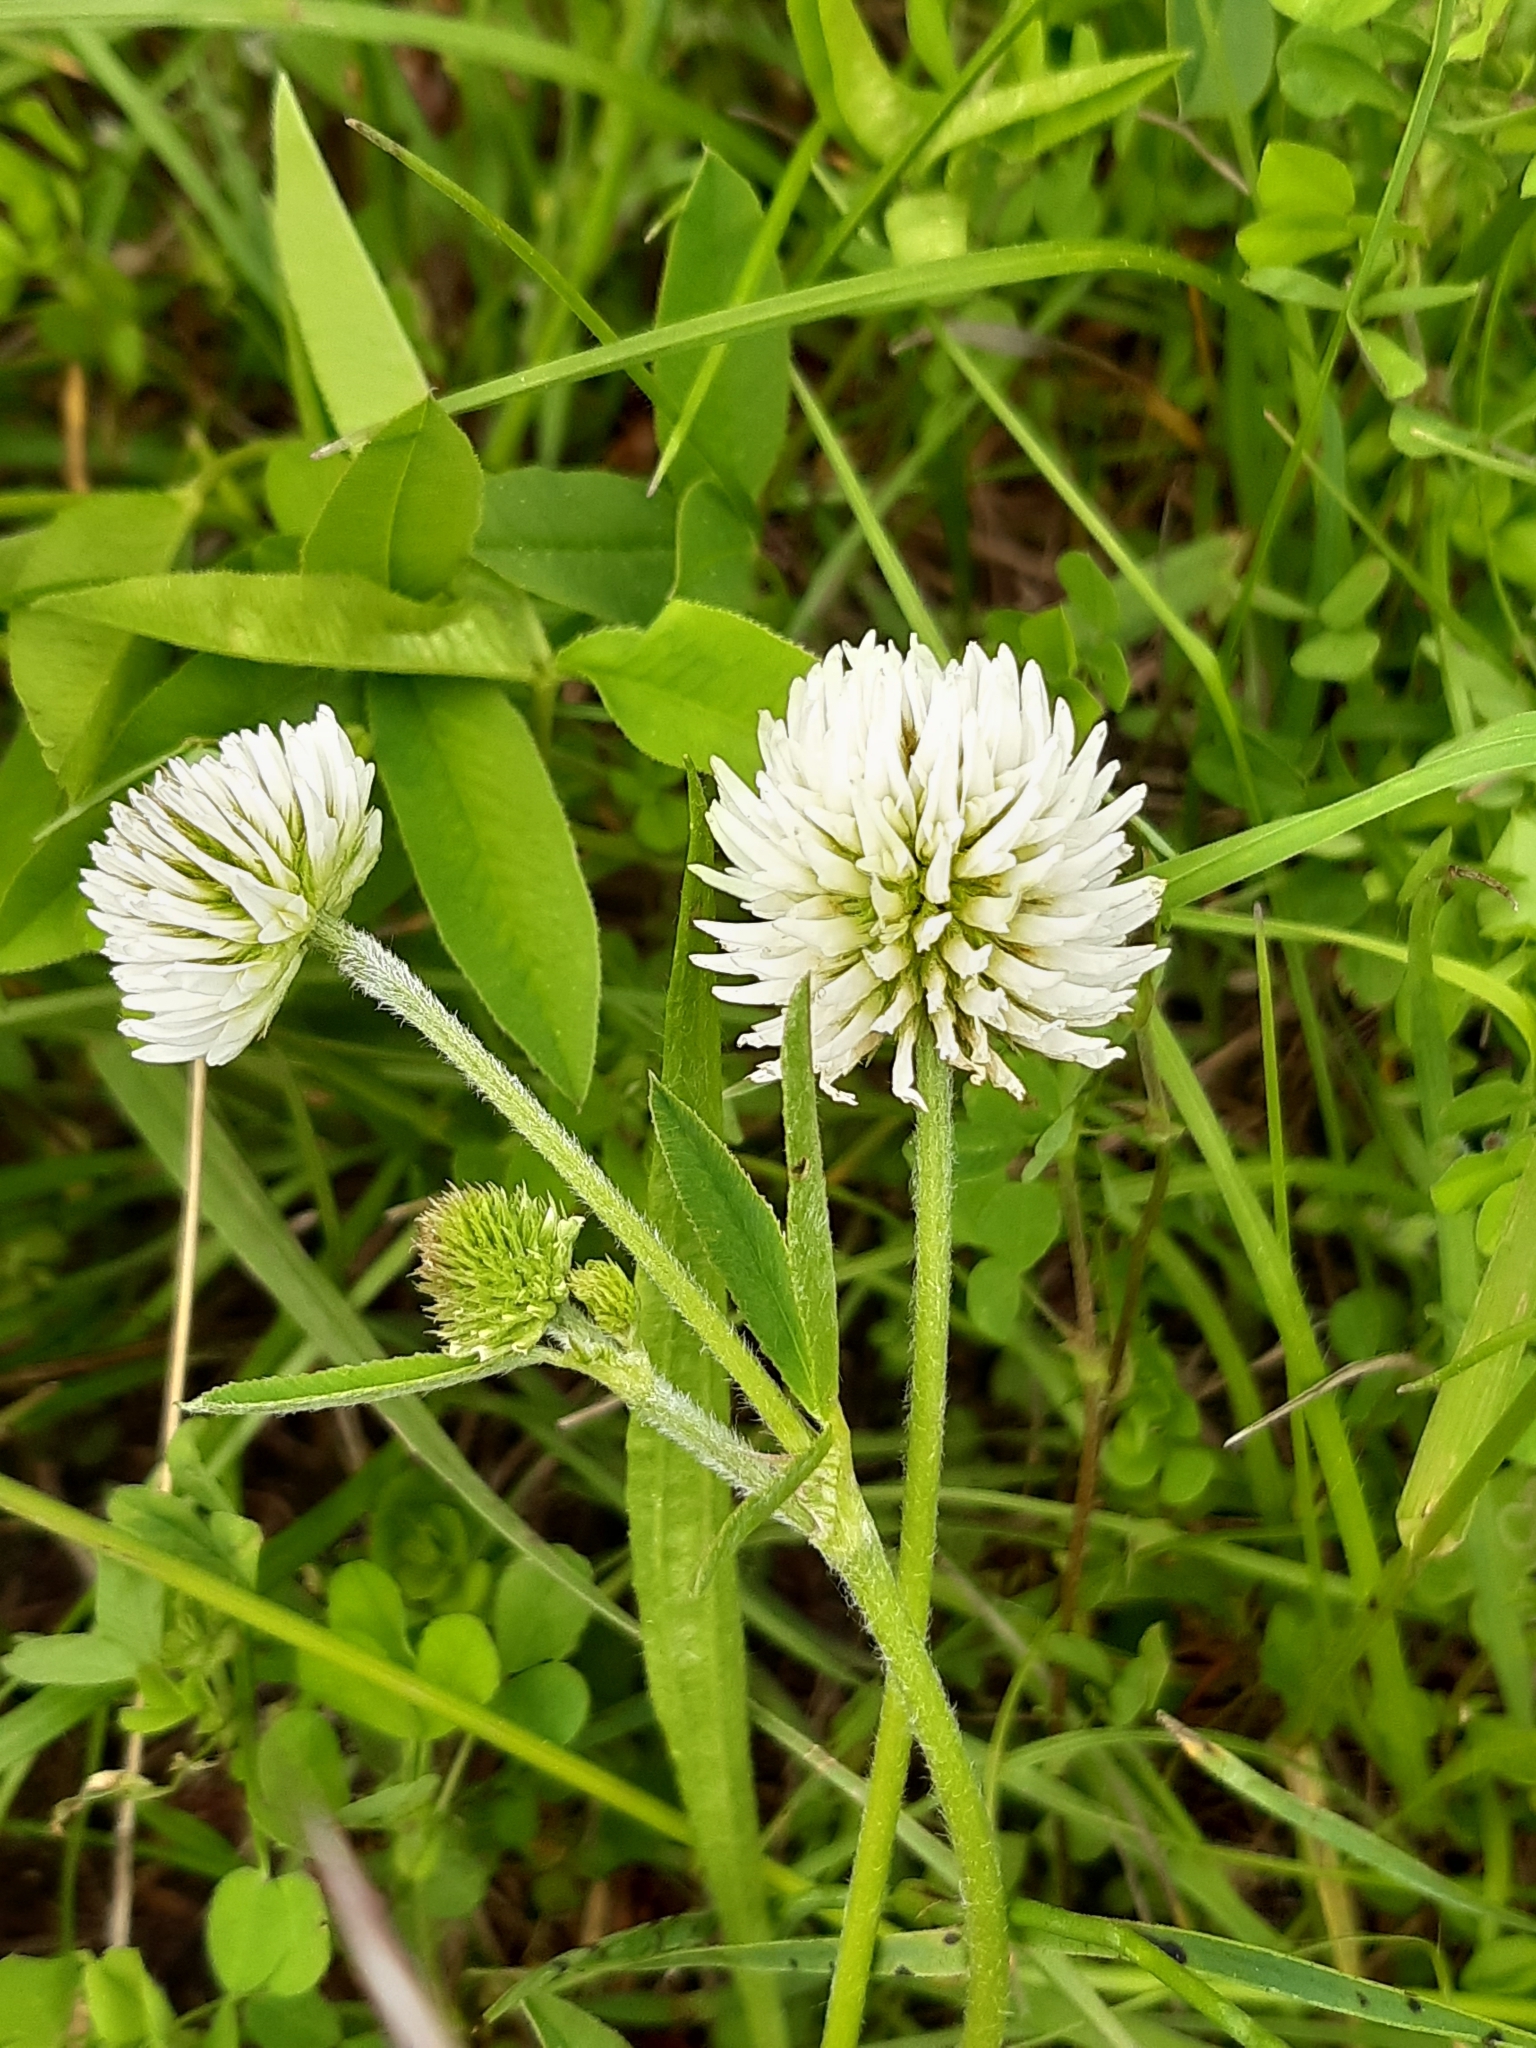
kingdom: Plantae
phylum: Tracheophyta
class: Magnoliopsida
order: Fabales
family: Fabaceae
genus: Trifolium
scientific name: Trifolium montanum
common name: Mountain clover
